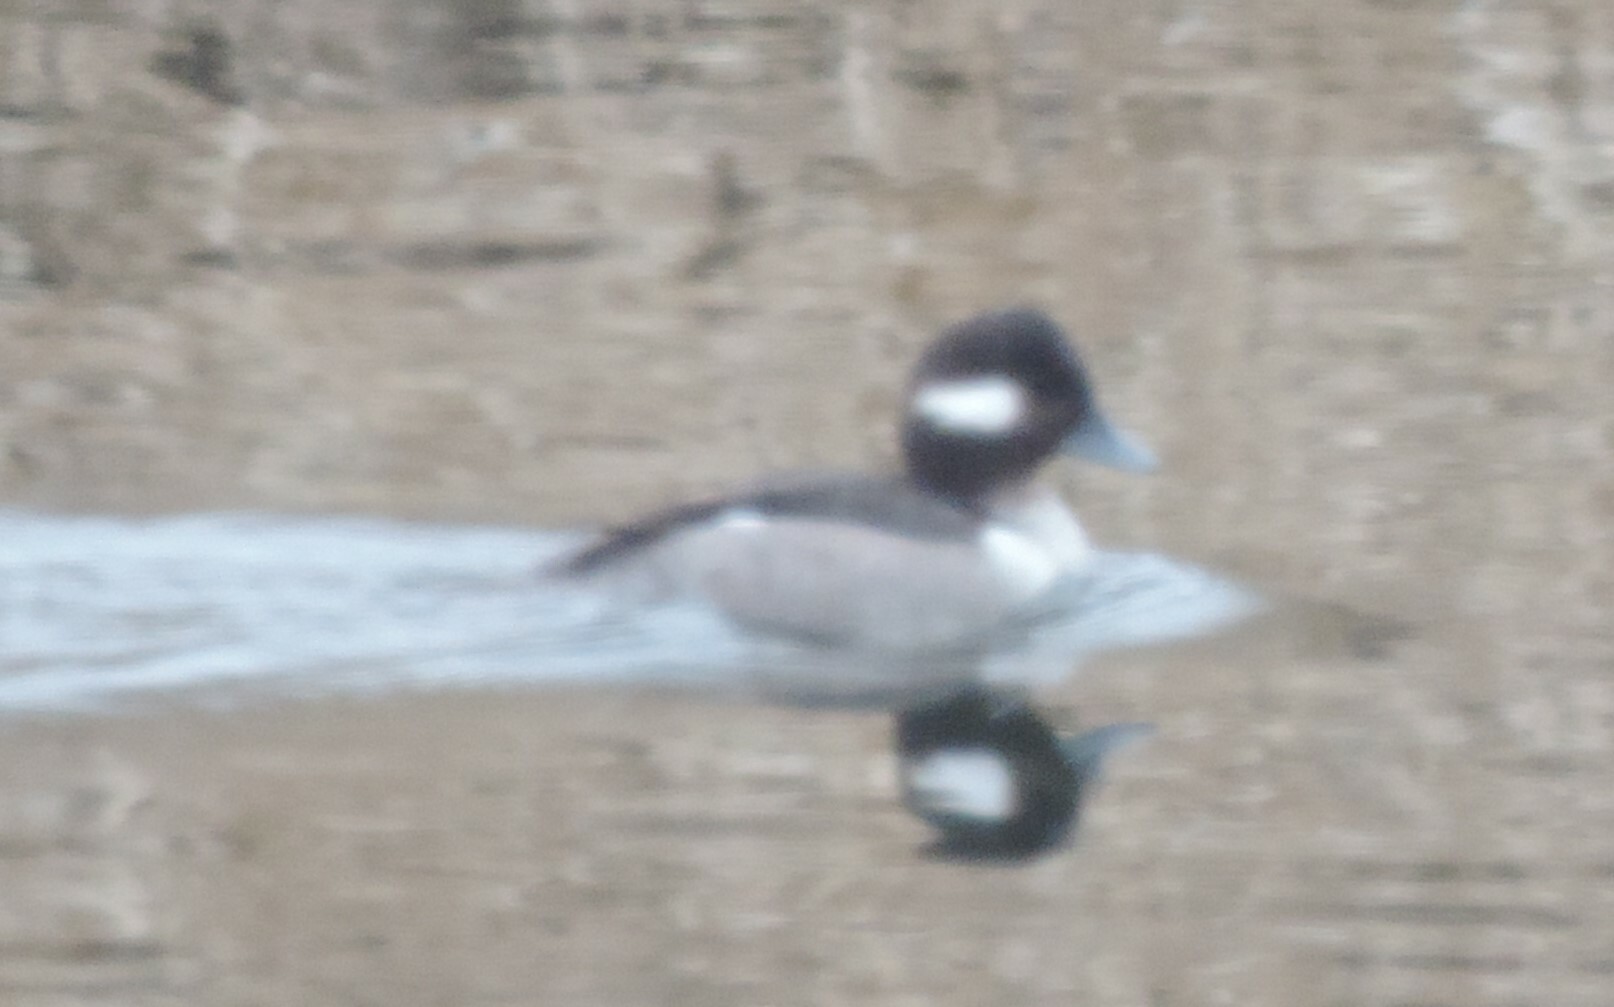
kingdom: Animalia
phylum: Chordata
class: Aves
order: Anseriformes
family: Anatidae
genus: Bucephala
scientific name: Bucephala albeola
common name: Bufflehead
